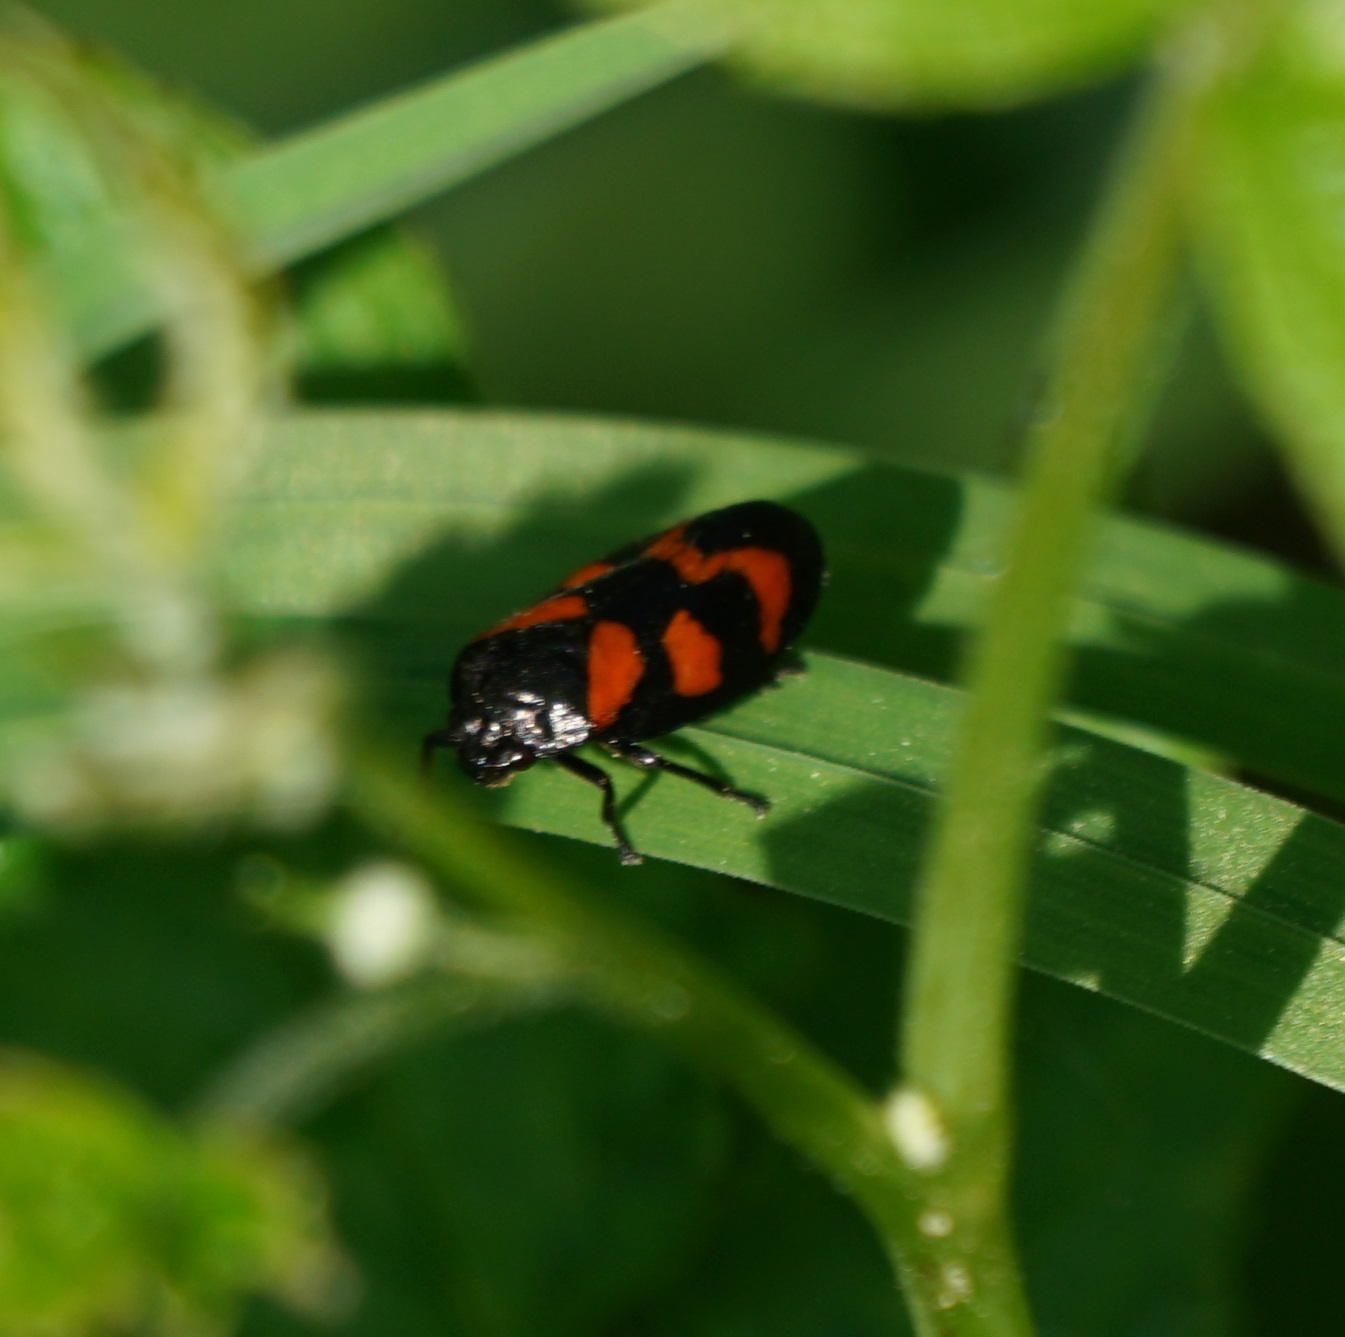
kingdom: Animalia
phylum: Arthropoda
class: Insecta
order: Hemiptera
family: Cercopidae
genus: Cercopis
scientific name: Cercopis vulnerata
